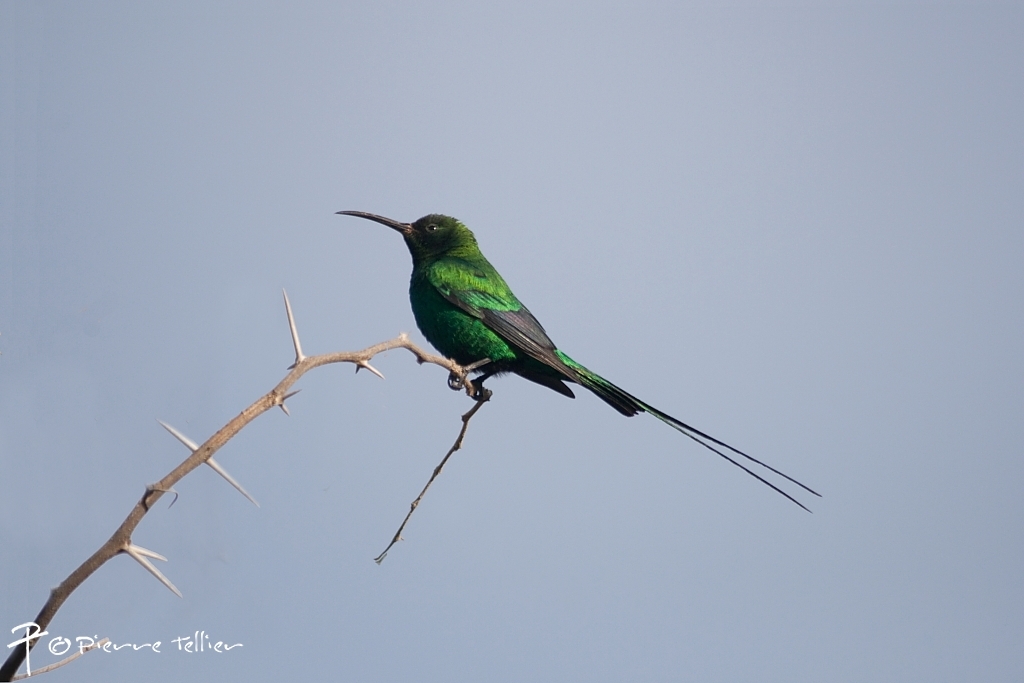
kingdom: Animalia
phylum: Chordata
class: Aves
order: Passeriformes
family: Nectariniidae
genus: Nectarinia
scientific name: Nectarinia famosa
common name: Malachite sunbird
